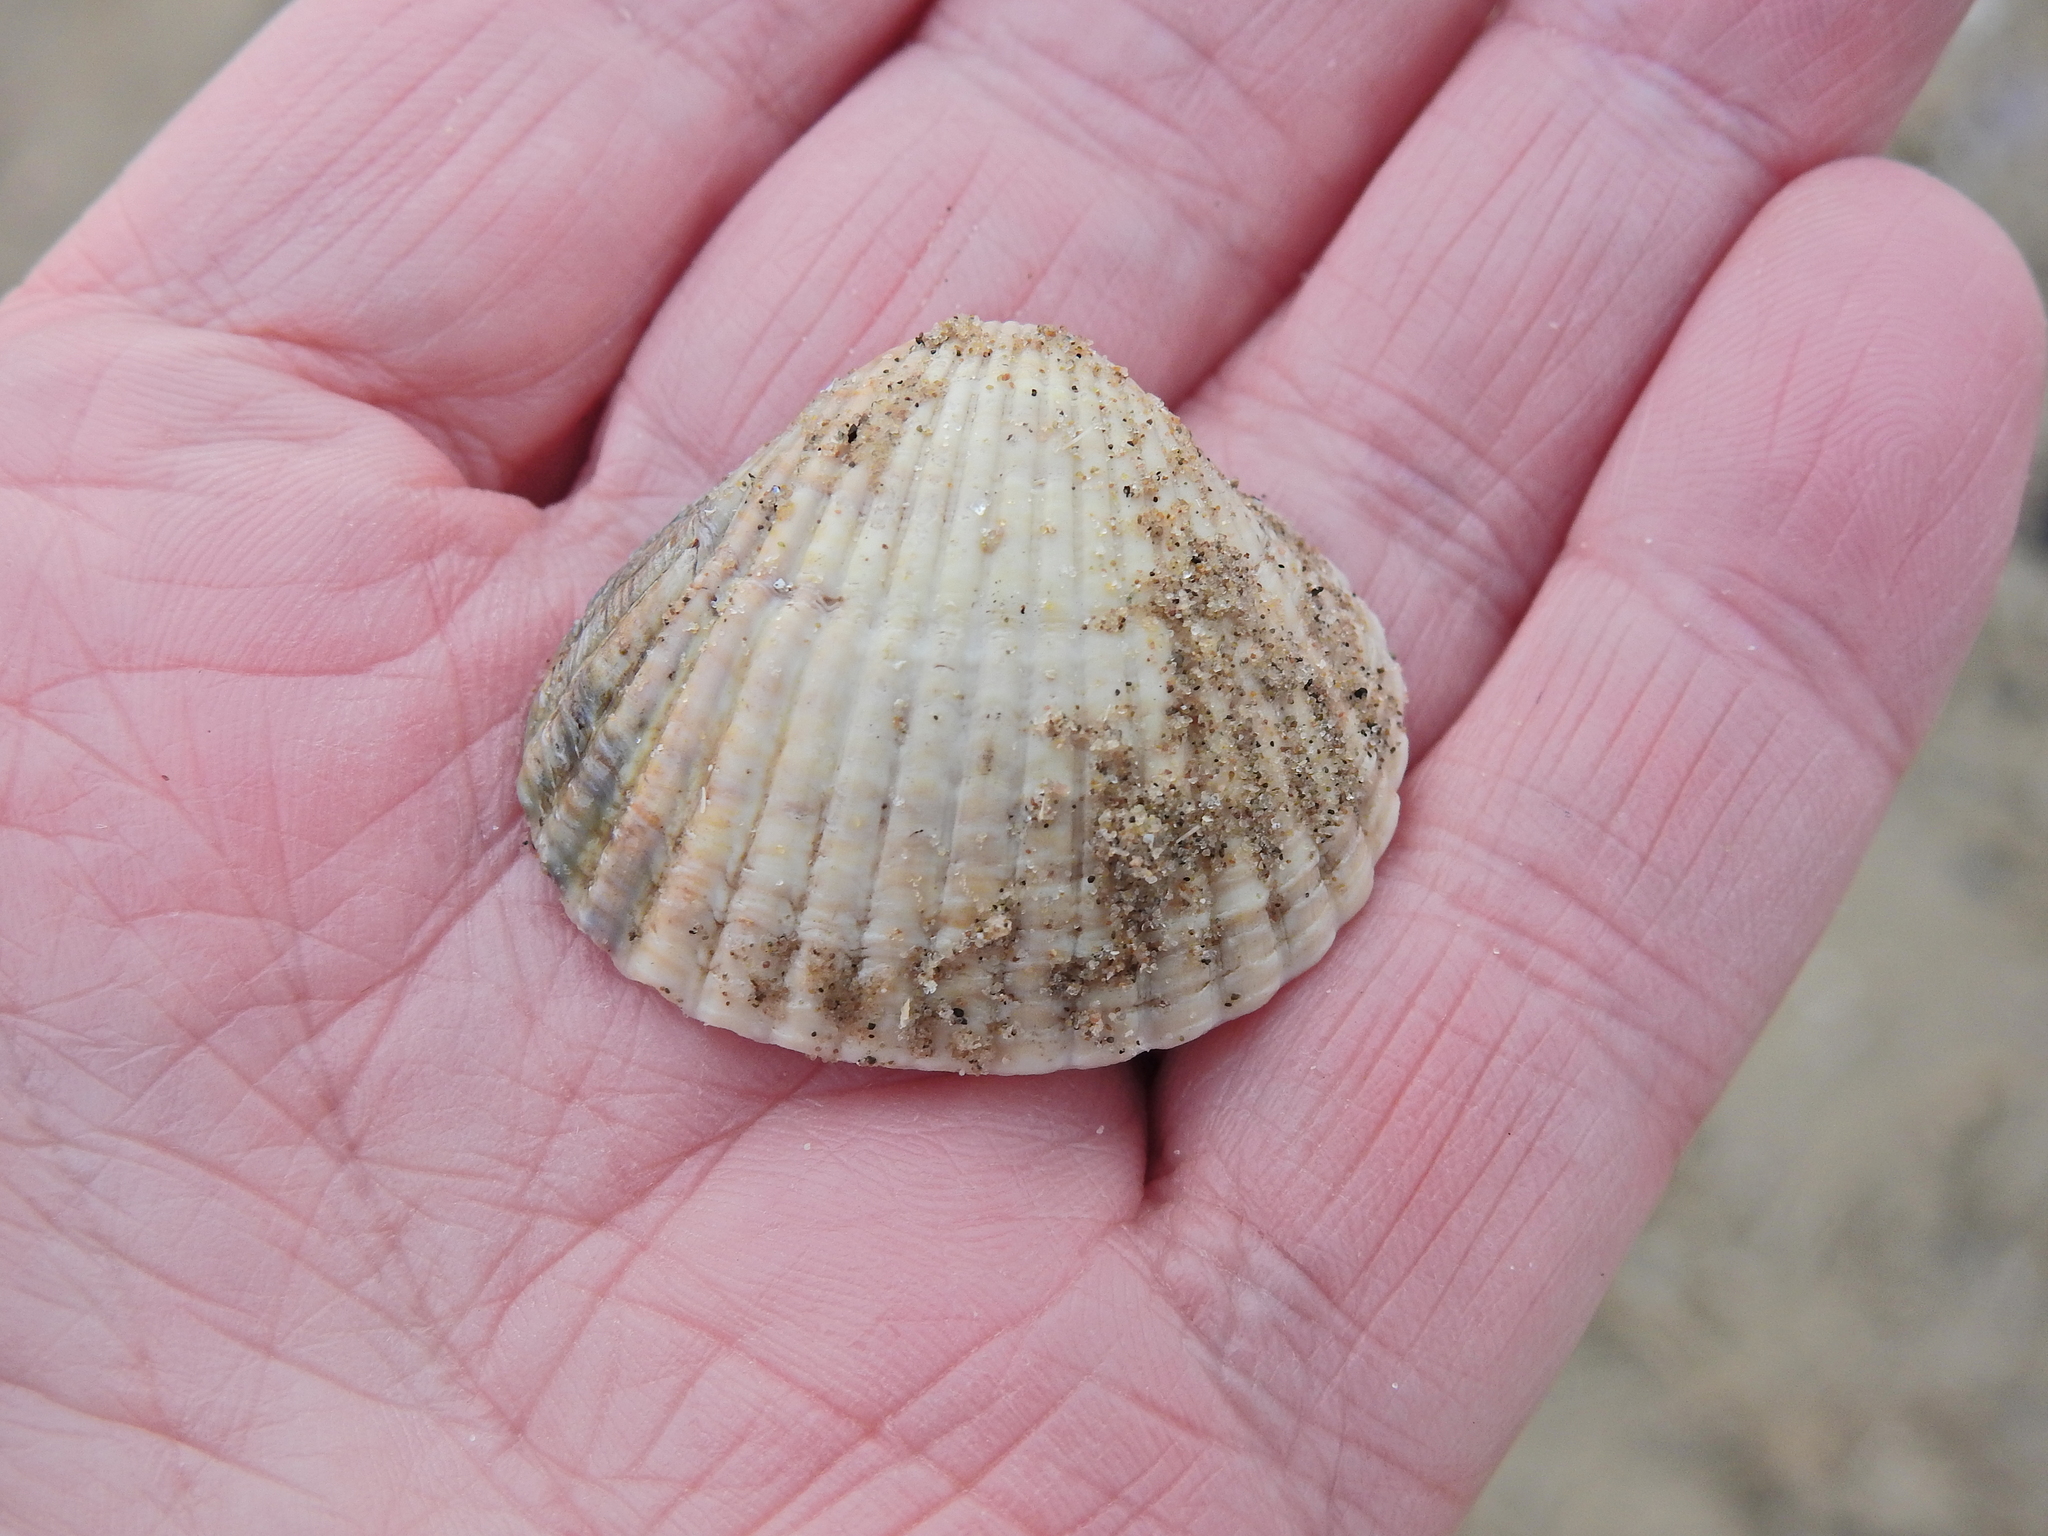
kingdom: Animalia
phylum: Mollusca
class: Bivalvia
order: Cardiida
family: Cardiidae
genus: Cerastoderma
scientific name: Cerastoderma edule
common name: Common cockle
